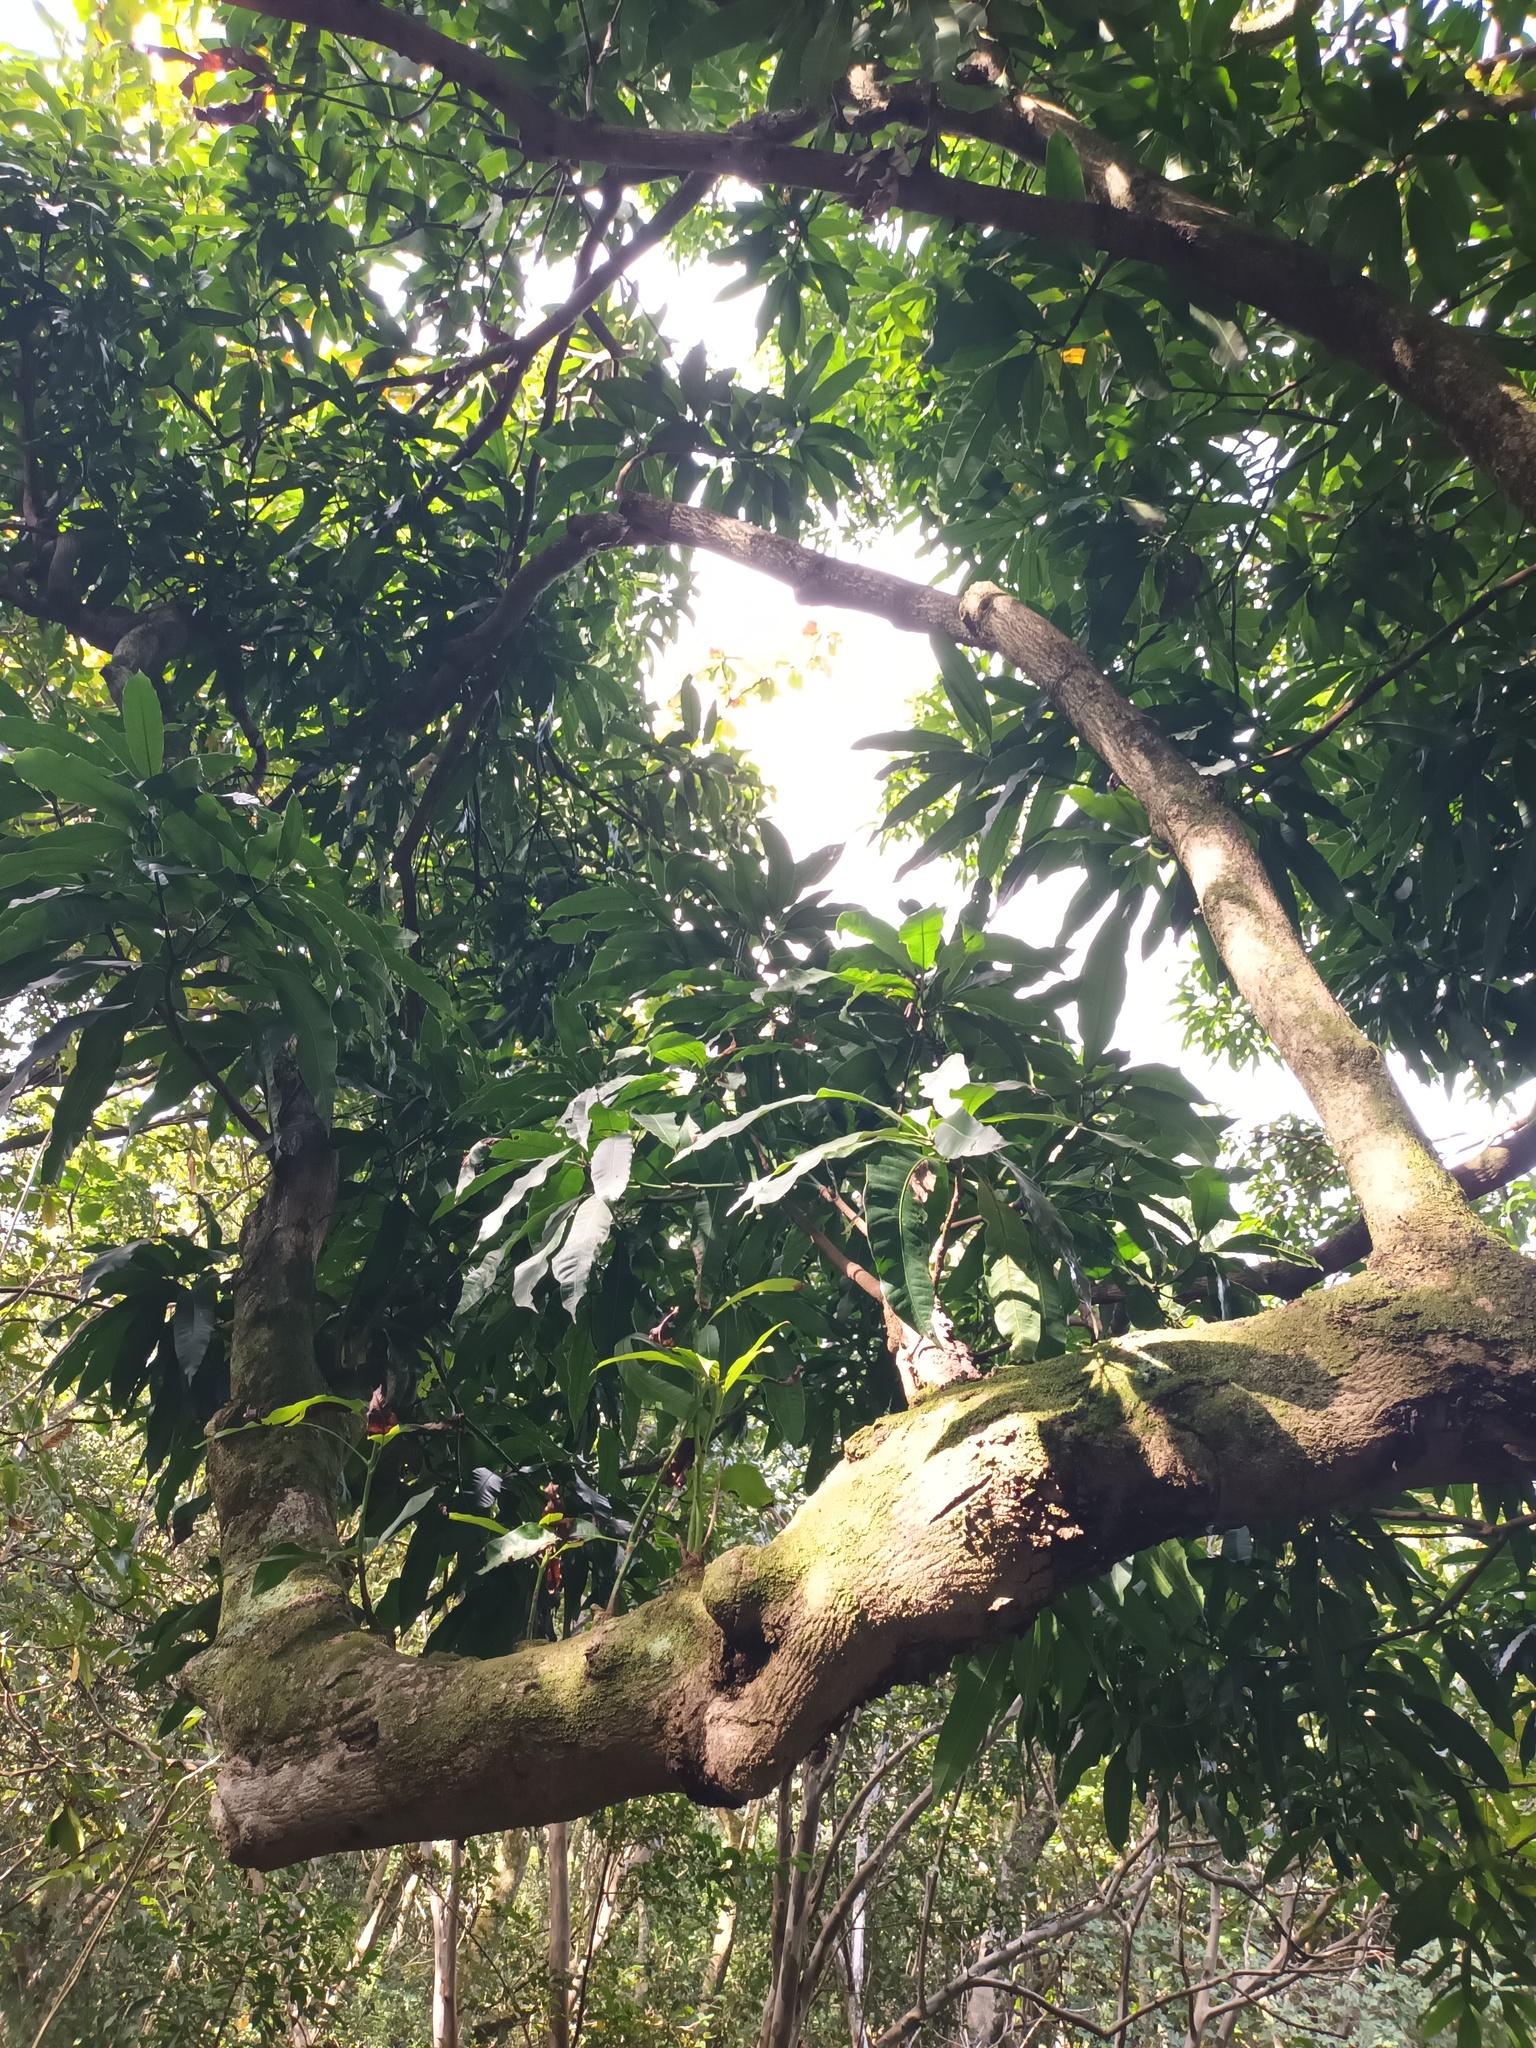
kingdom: Plantae
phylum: Tracheophyta
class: Magnoliopsida
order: Sapindales
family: Anacardiaceae
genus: Mangifera
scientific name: Mangifera indica
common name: Mango
